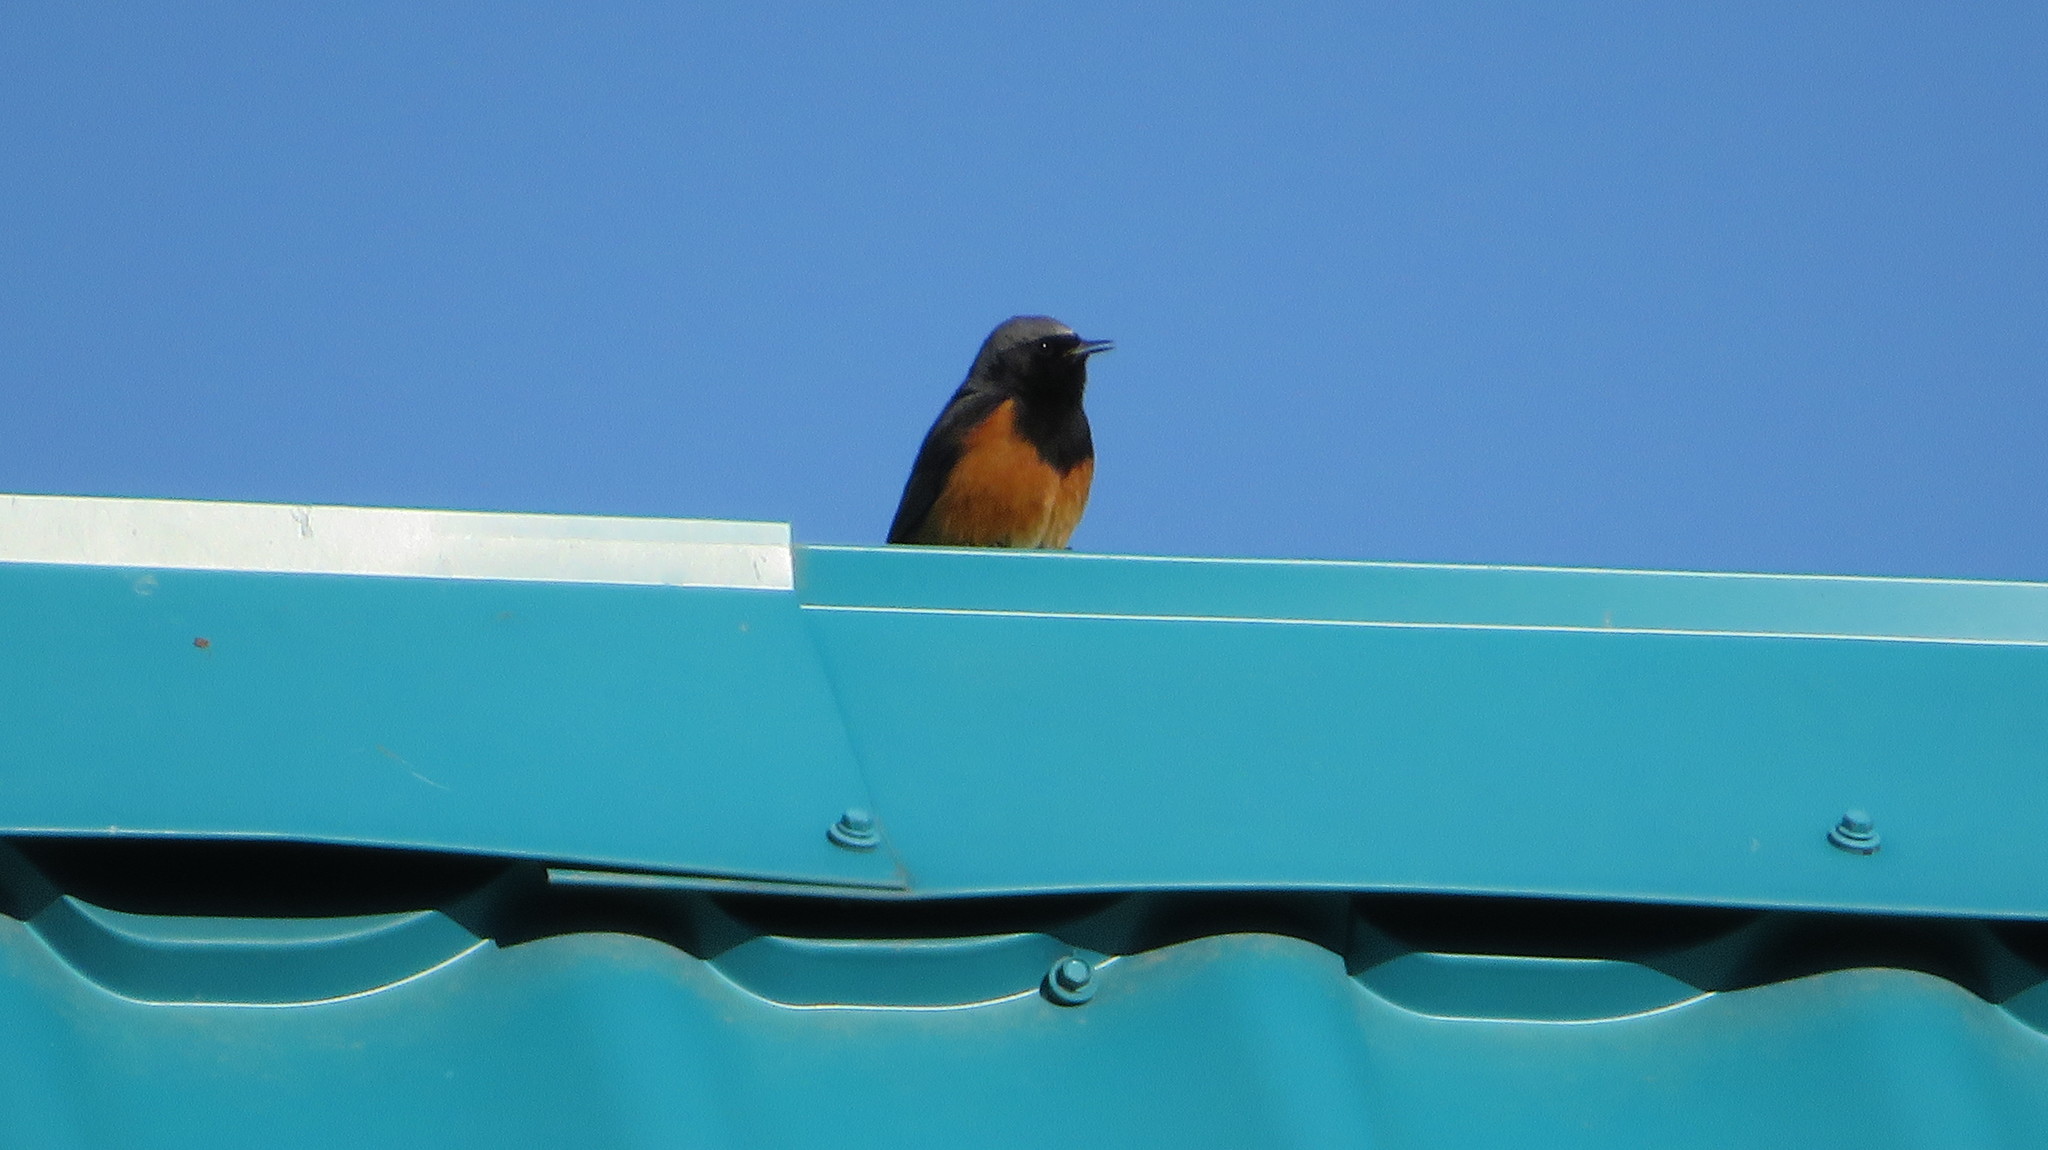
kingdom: Animalia
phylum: Chordata
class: Aves
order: Passeriformes
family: Muscicapidae
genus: Phoenicurus
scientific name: Phoenicurus ochruros
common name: Black redstart
